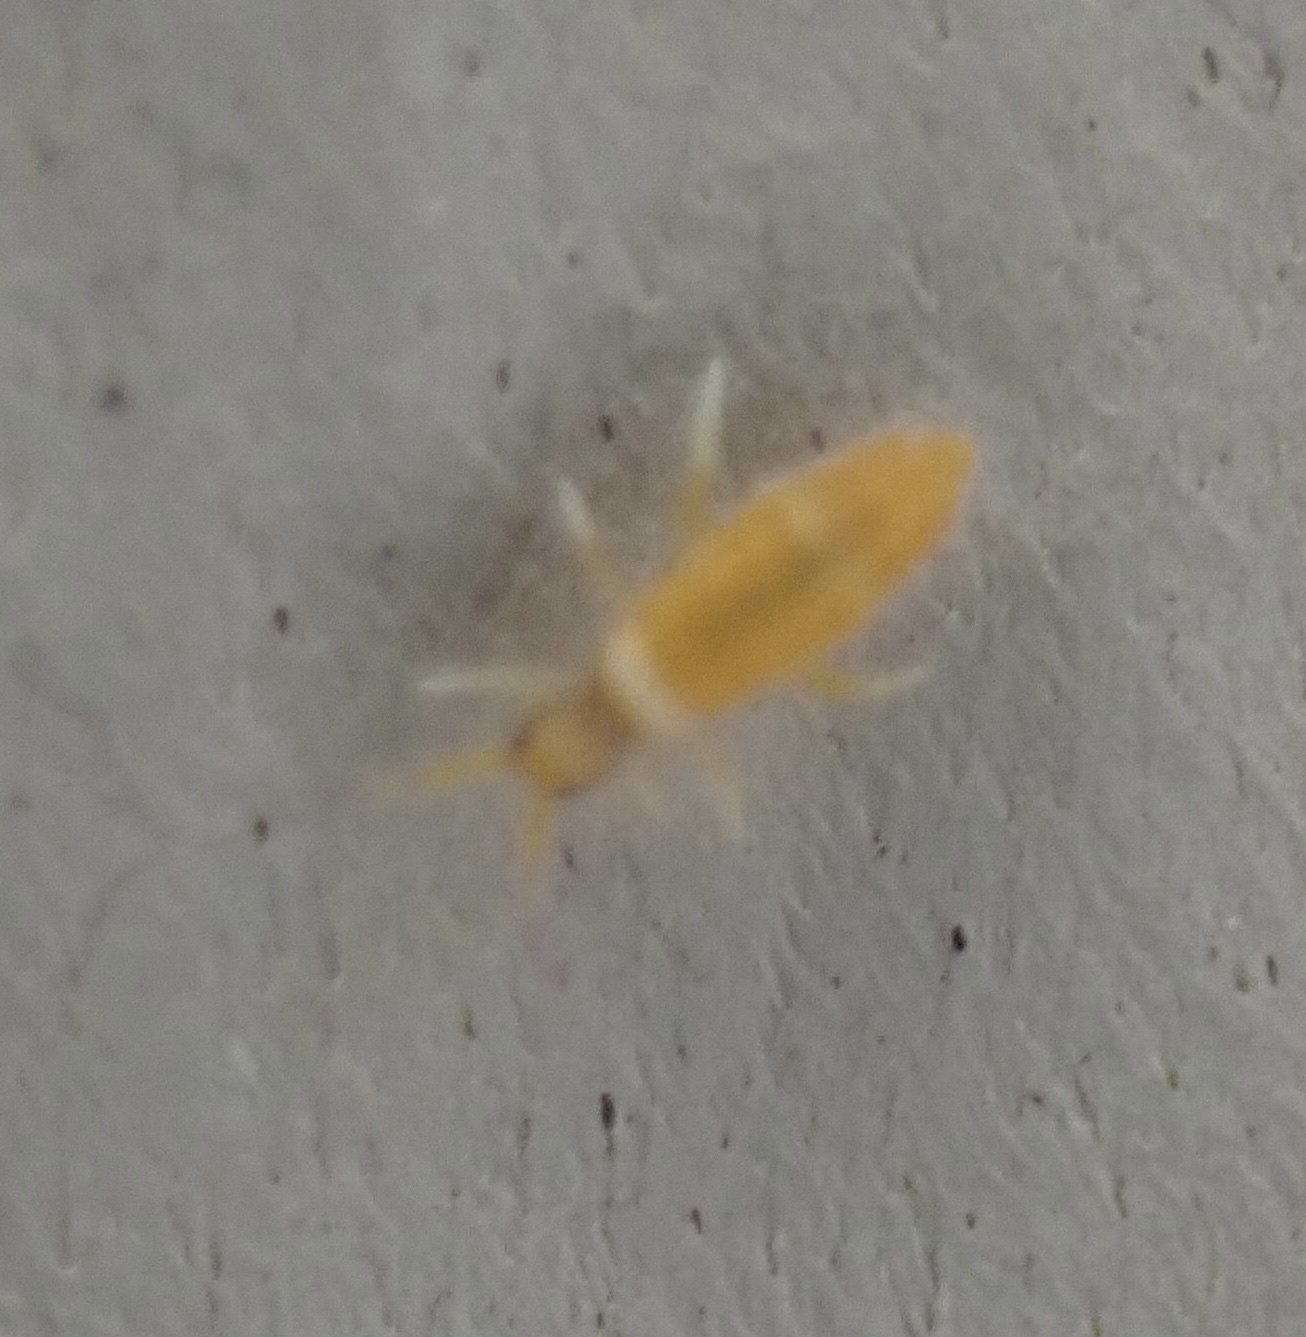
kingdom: Animalia
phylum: Arthropoda
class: Collembola
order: Entomobryomorpha
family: Entomobryidae
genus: Entomobrya
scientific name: Entomobrya atrocincta
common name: Springtail
